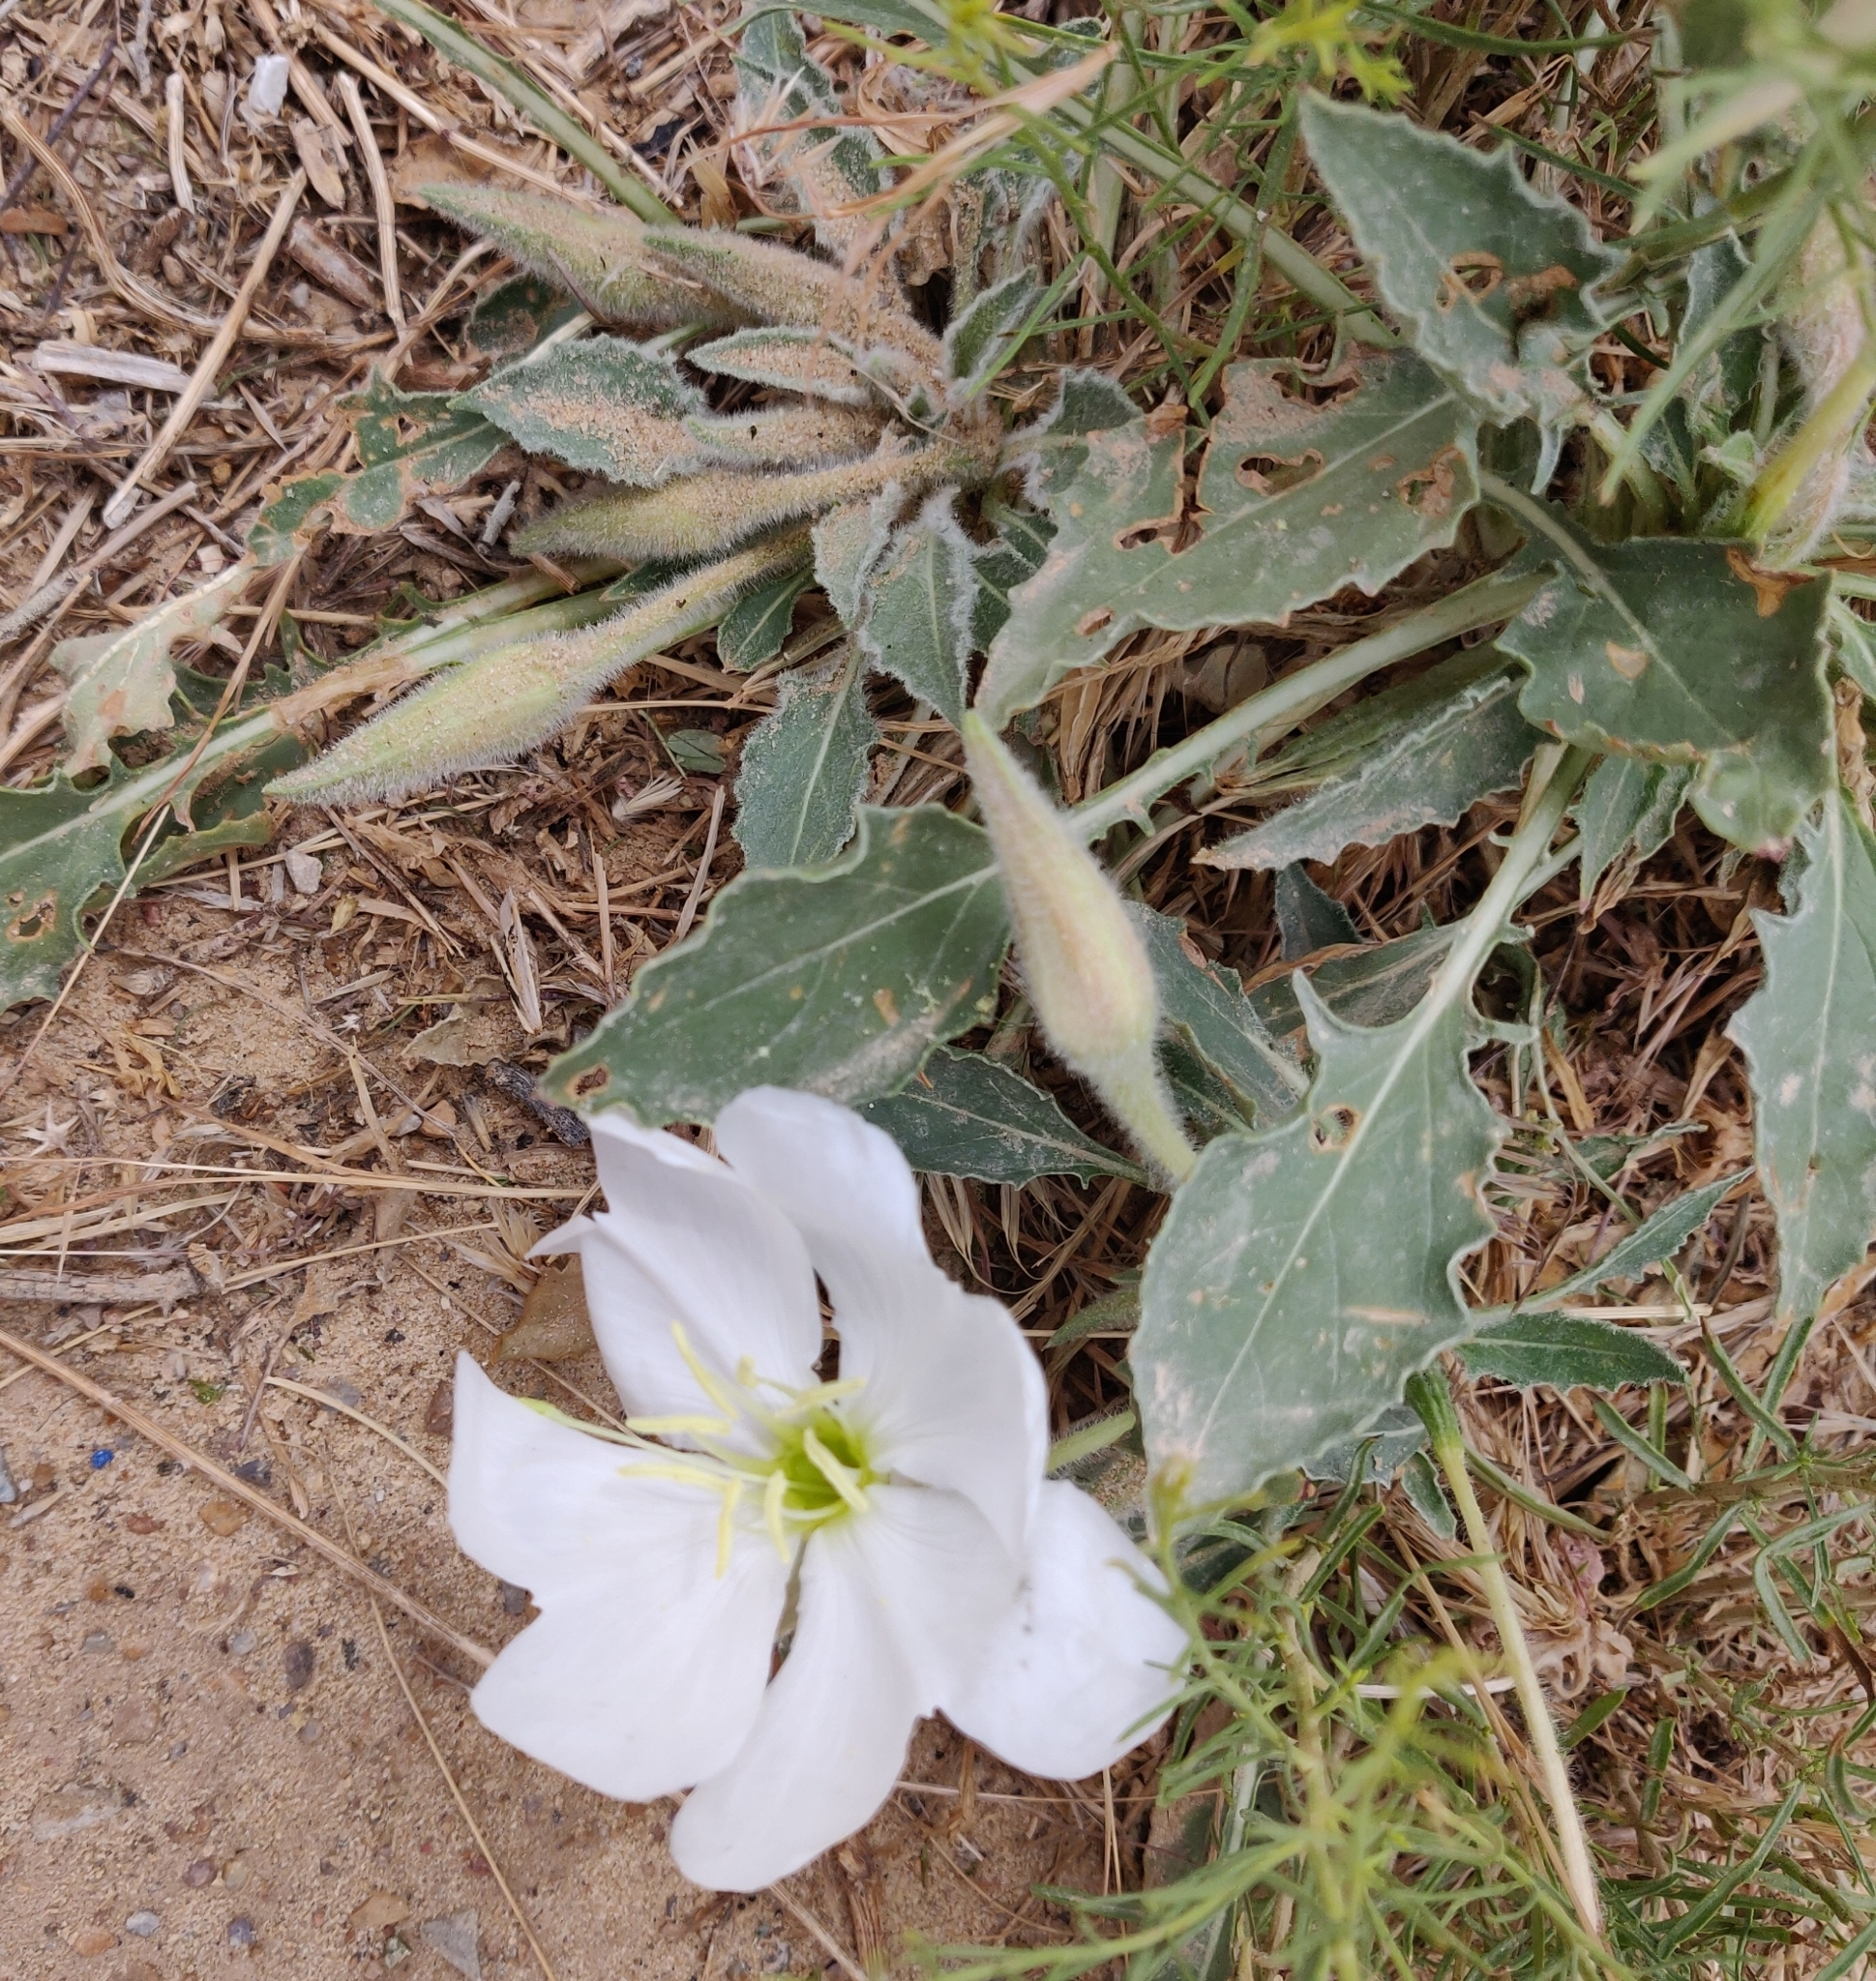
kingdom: Plantae
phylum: Tracheophyta
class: Magnoliopsida
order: Myrtales
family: Onagraceae
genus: Oenothera
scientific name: Oenothera cespitosa
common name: Tufted evening-primrose
